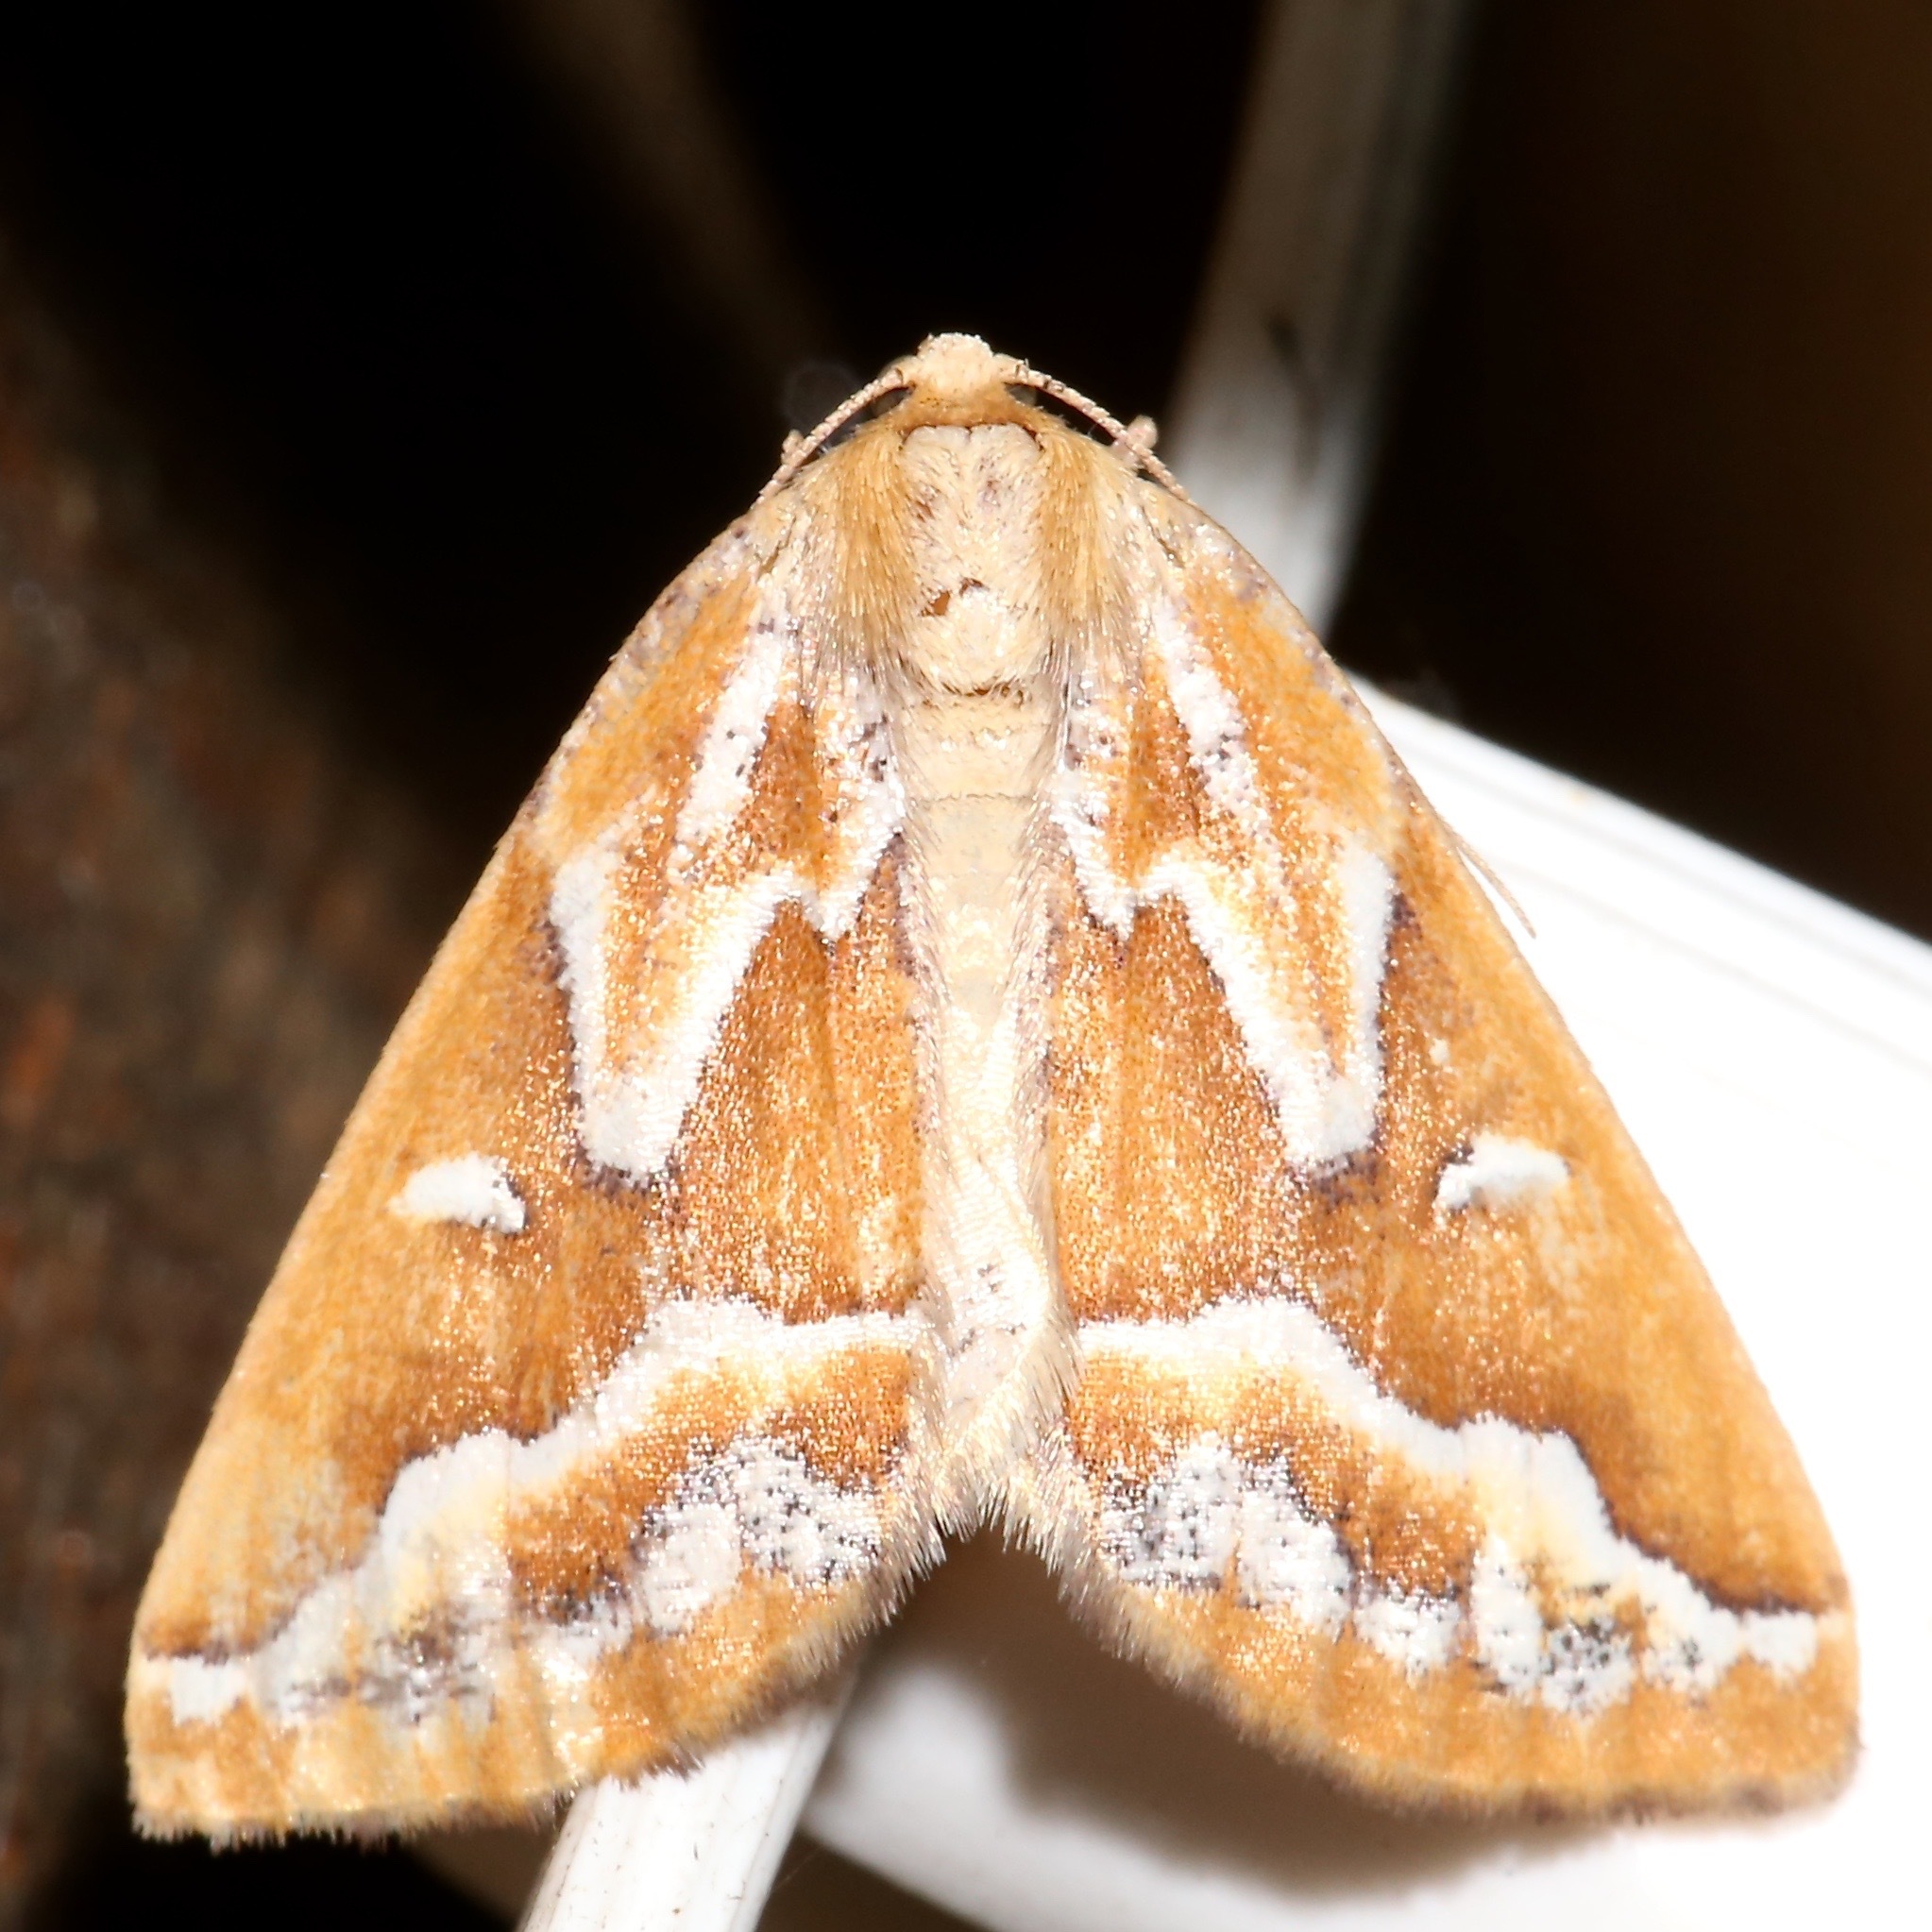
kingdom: Animalia
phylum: Arthropoda
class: Insecta
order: Lepidoptera
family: Geometridae
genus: Caripeta
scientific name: Caripeta angustiorata
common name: Brown pine looper
